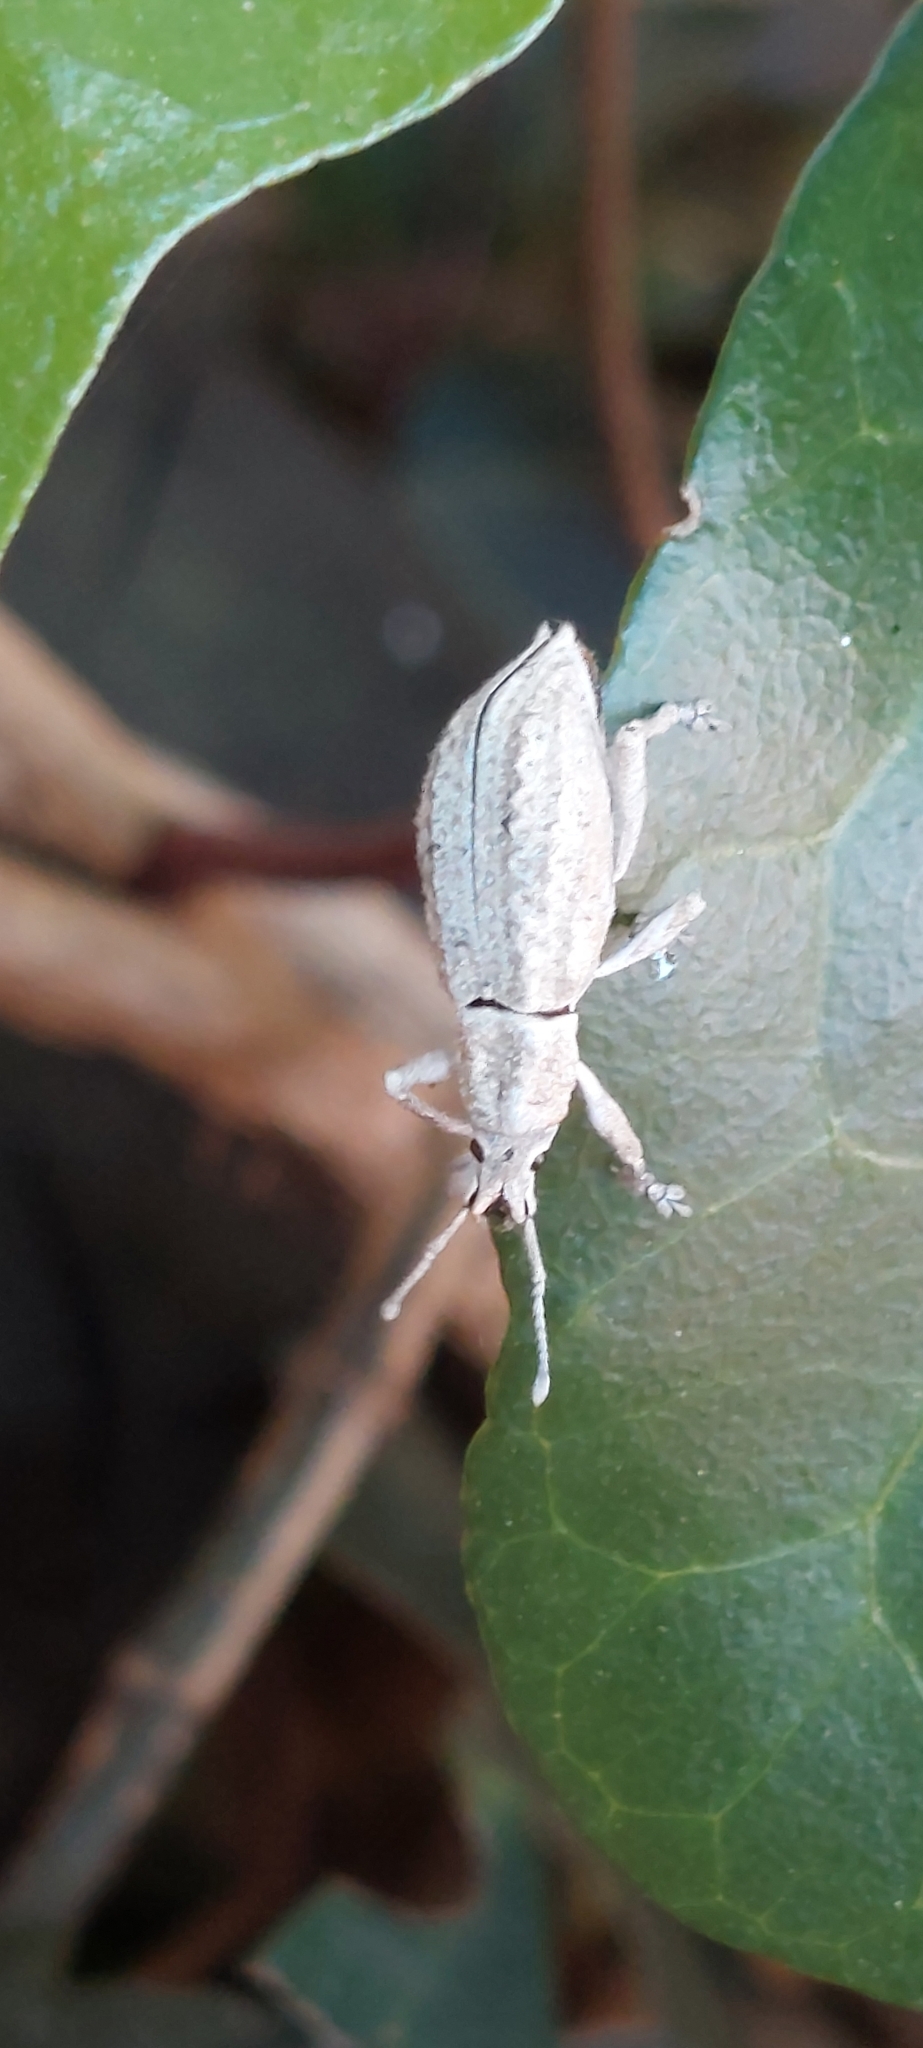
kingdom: Animalia
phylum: Arthropoda
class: Insecta
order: Coleoptera
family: Curculionidae
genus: Compsus
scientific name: Compsus canescens
